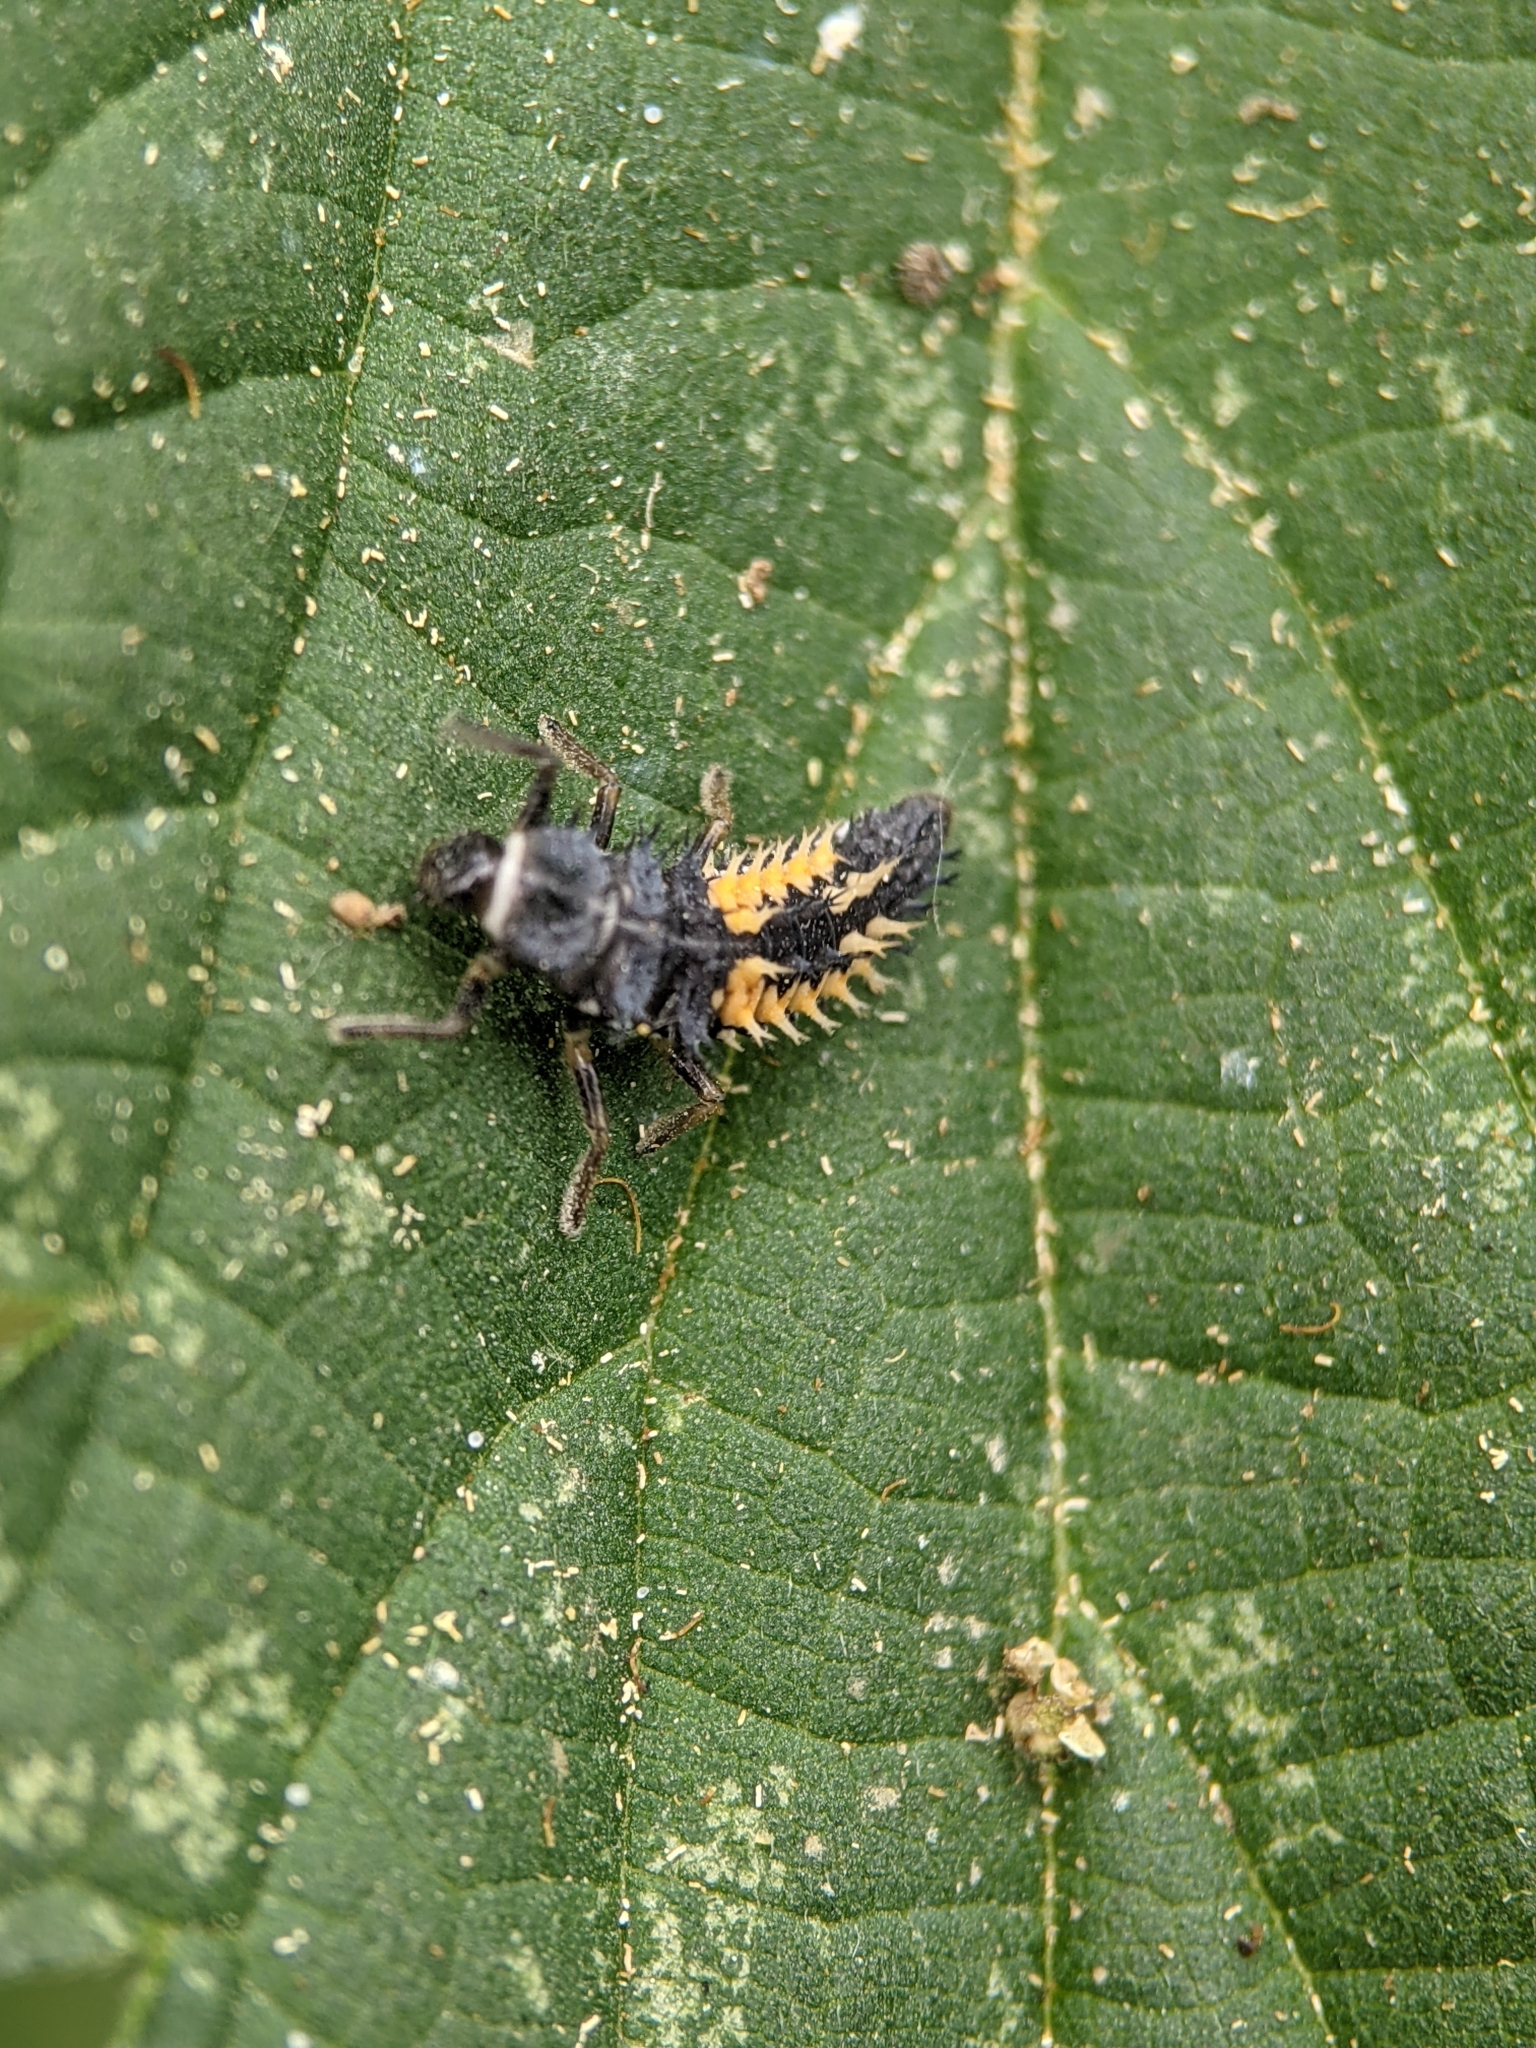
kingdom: Animalia
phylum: Arthropoda
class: Insecta
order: Coleoptera
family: Coccinellidae
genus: Harmonia
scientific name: Harmonia axyridis
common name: Harlequin ladybird
